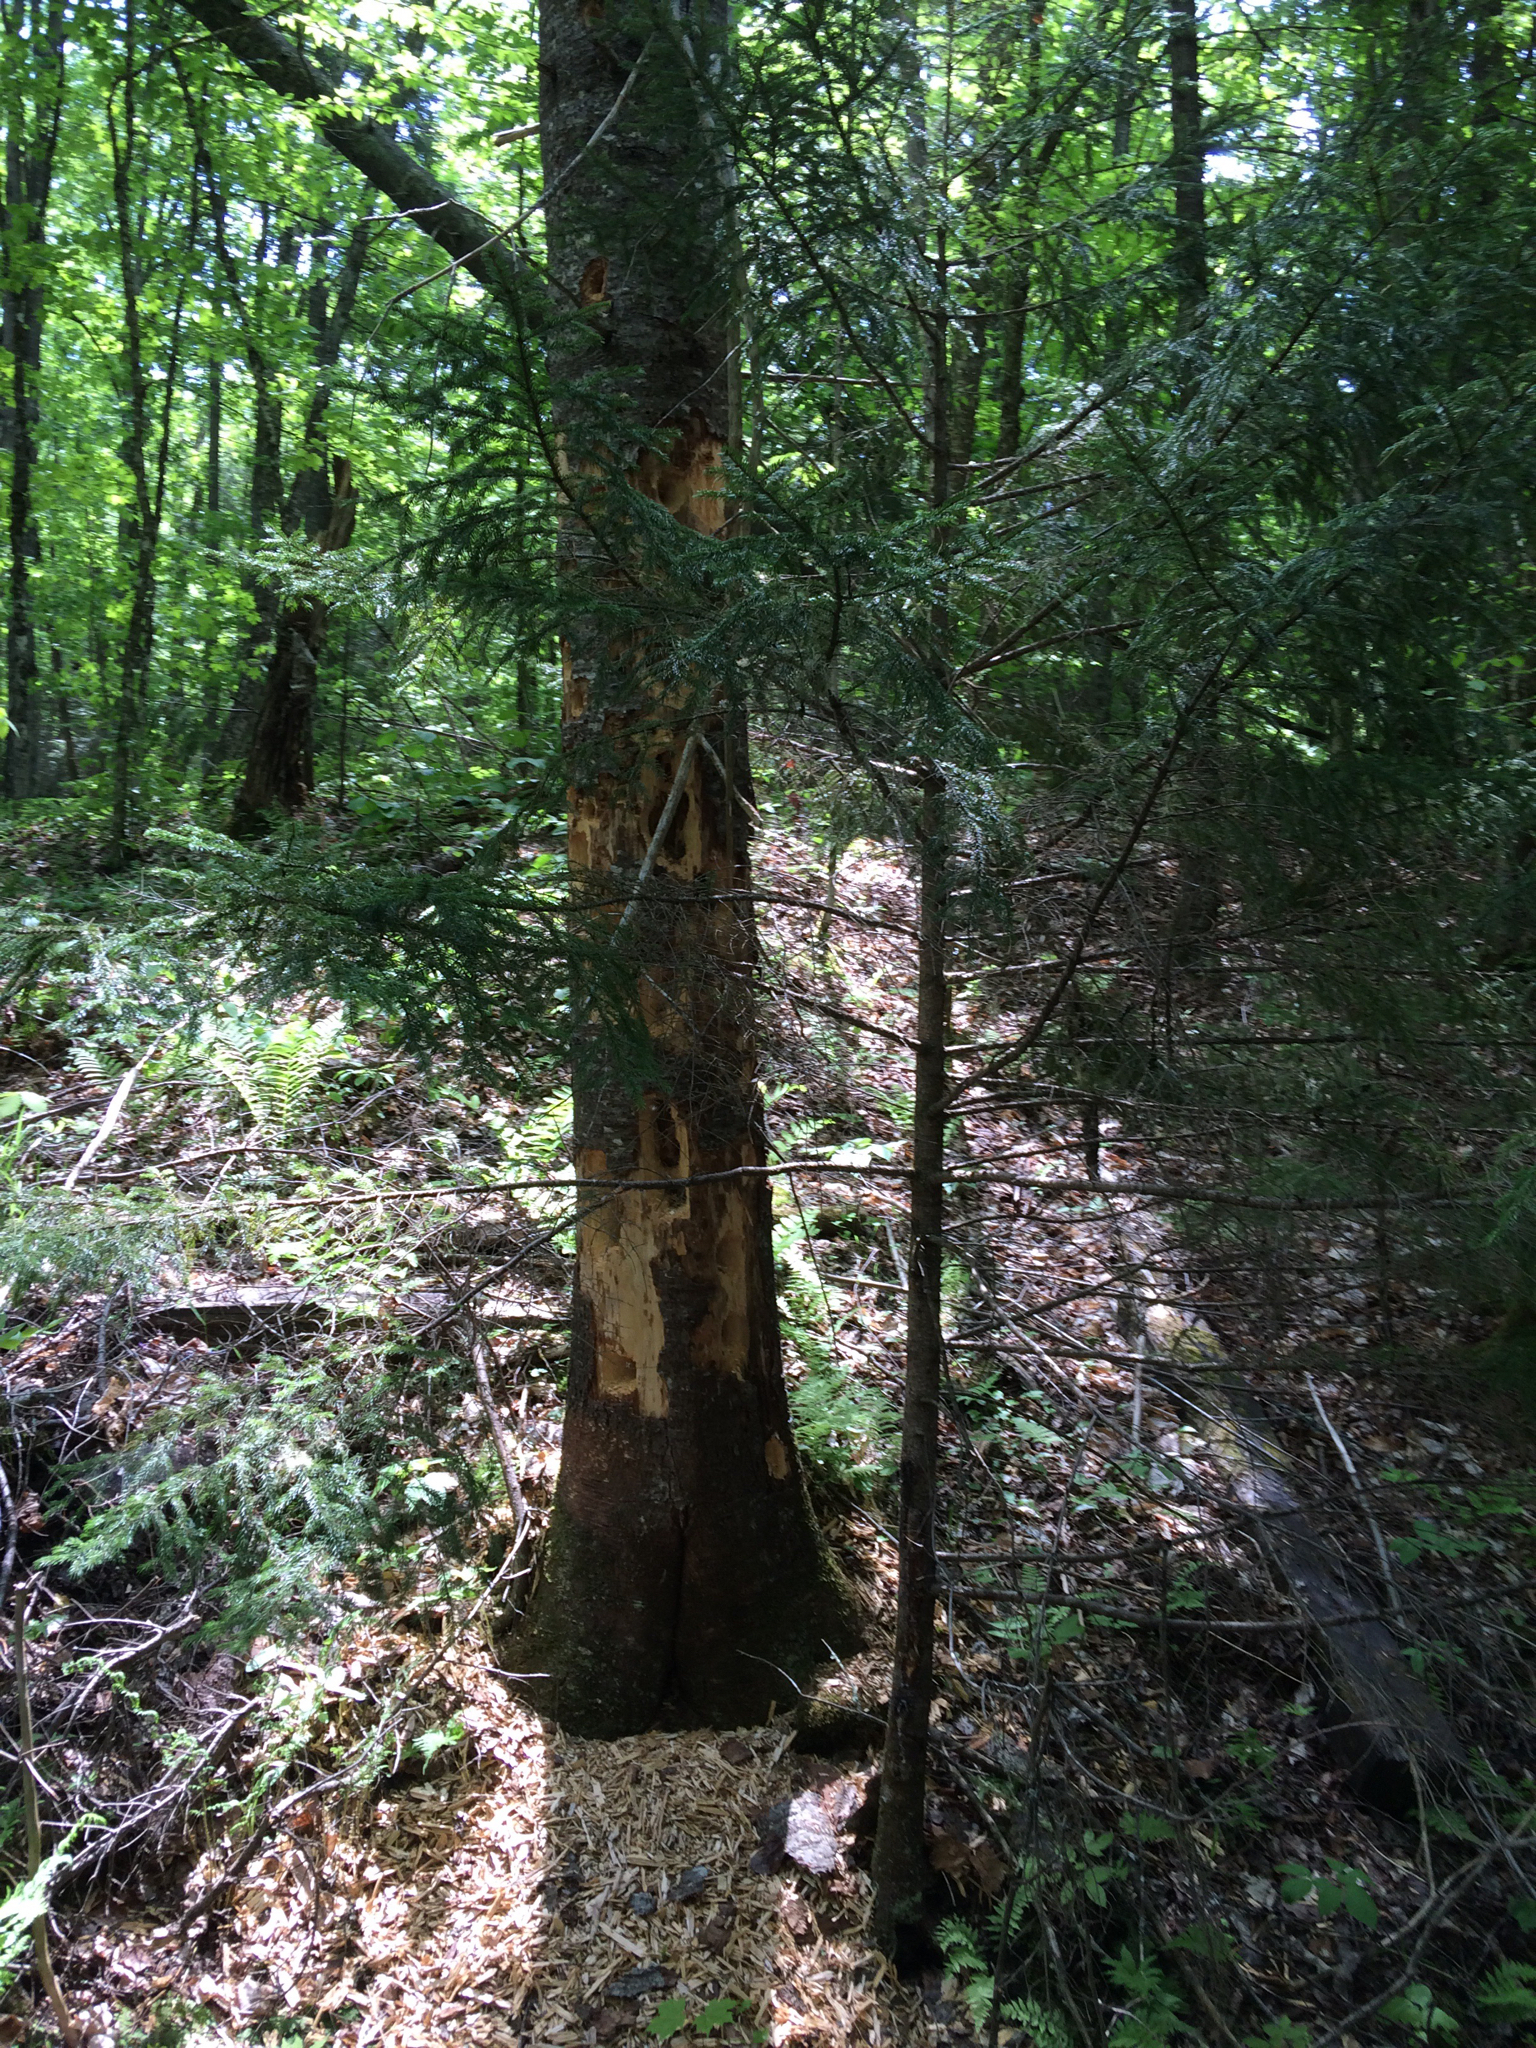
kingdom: Animalia
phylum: Chordata
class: Aves
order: Piciformes
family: Picidae
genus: Dryocopus
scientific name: Dryocopus pileatus
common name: Pileated woodpecker
